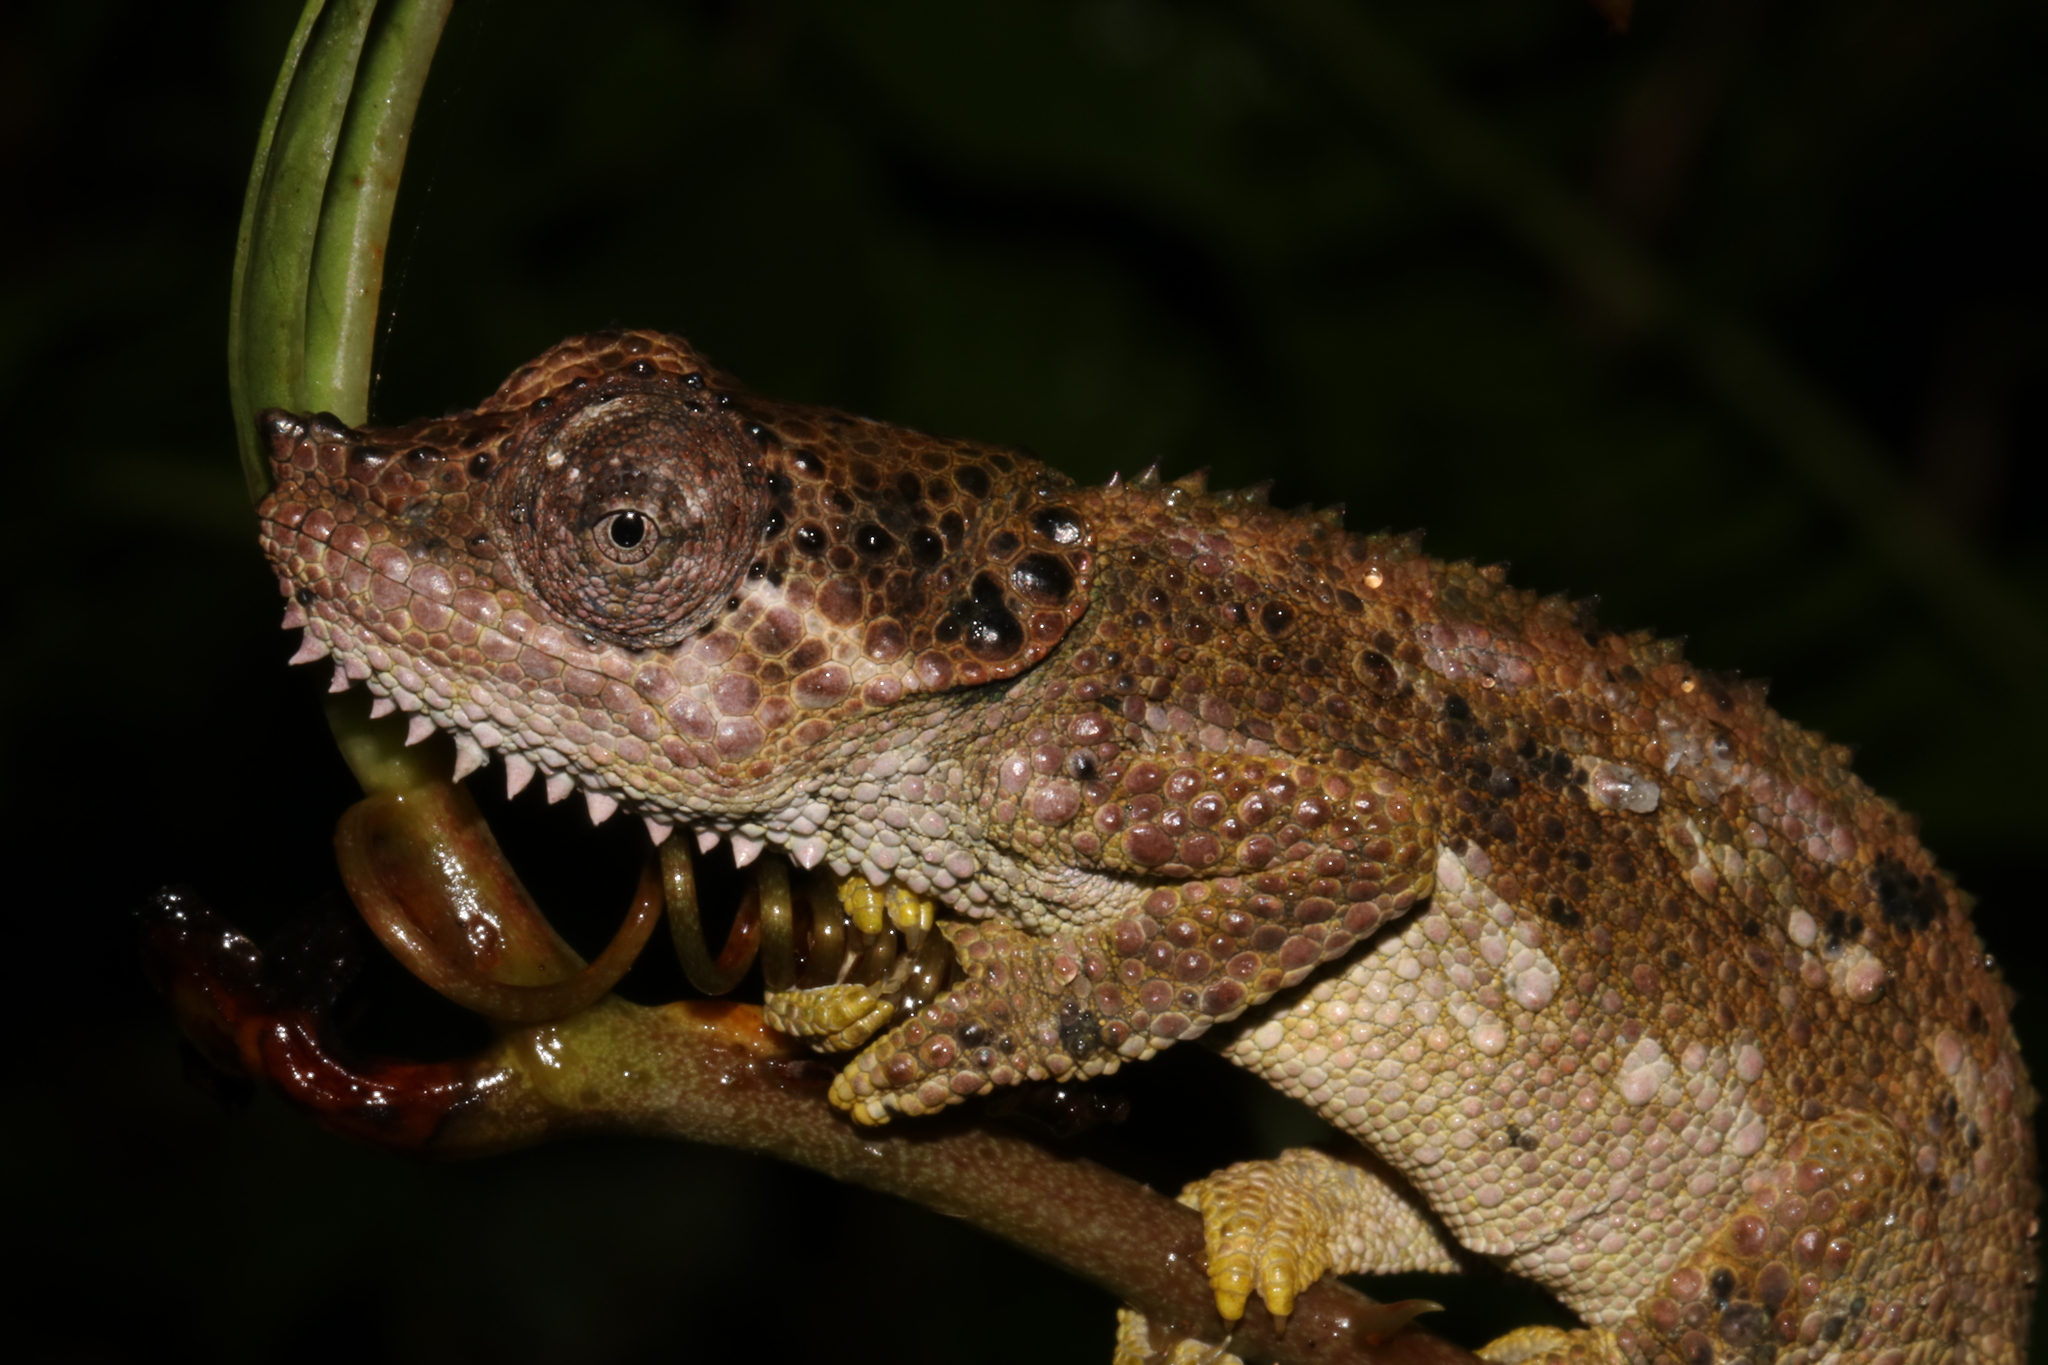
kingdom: Animalia
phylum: Chordata
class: Squamata
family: Chamaeleonidae
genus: Trioceros
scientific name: Trioceros tempeli
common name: Tanzania mountain chameleon
